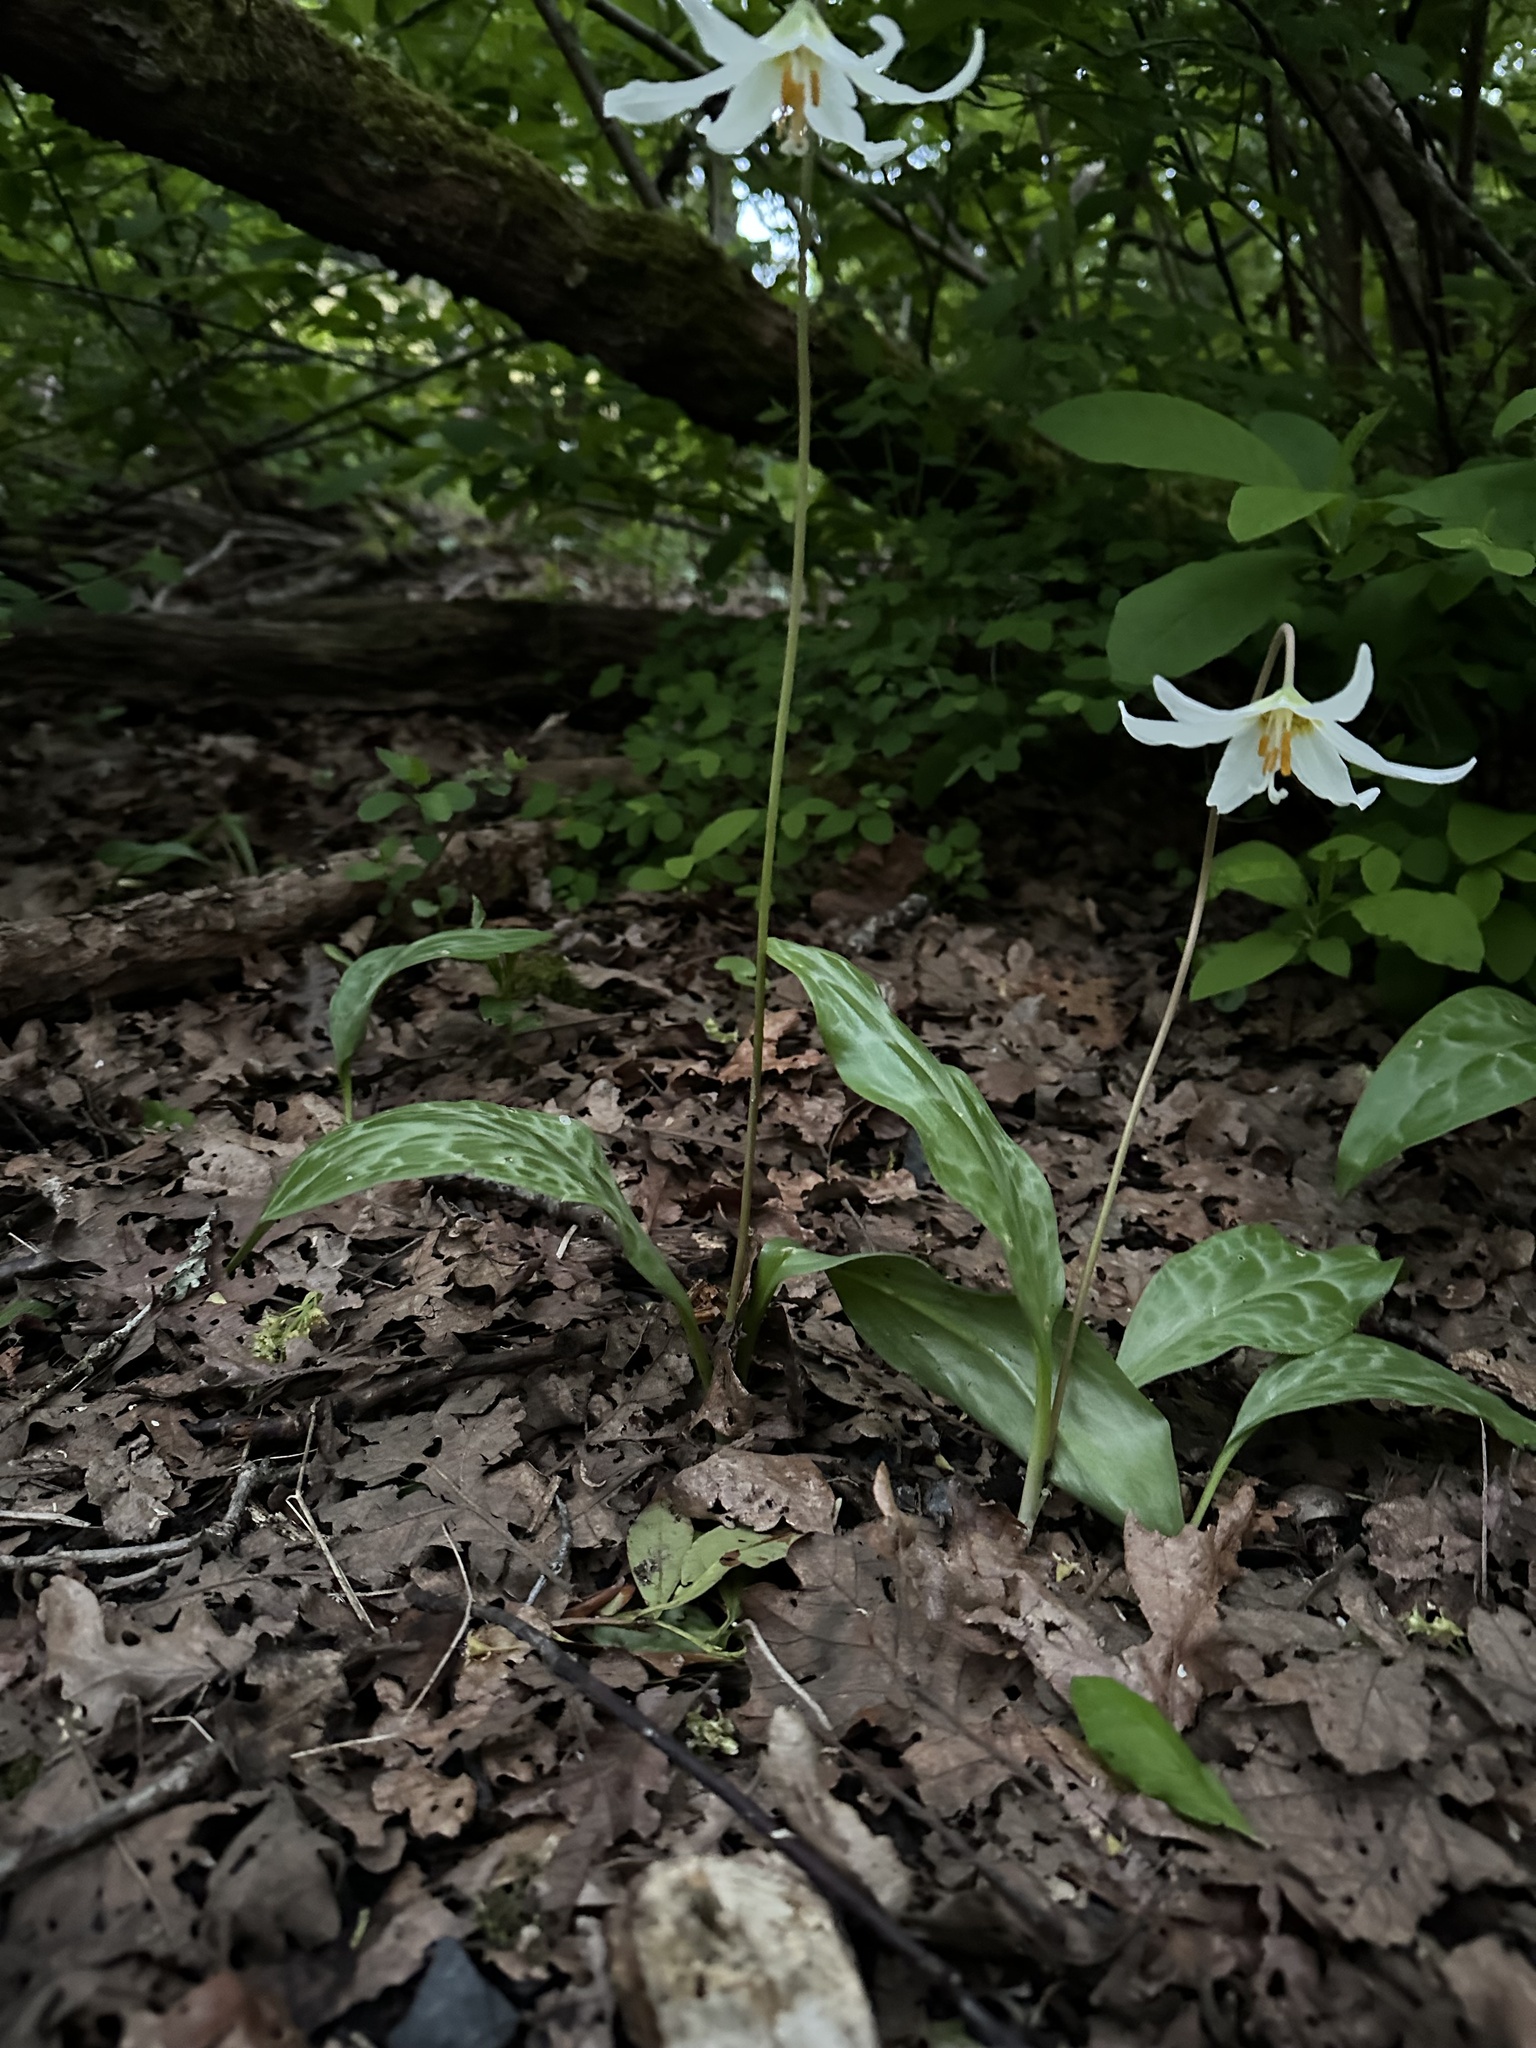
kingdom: Plantae
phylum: Tracheophyta
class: Liliopsida
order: Liliales
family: Liliaceae
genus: Erythronium
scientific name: Erythronium oregonum
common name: Giant adder's-tongue
